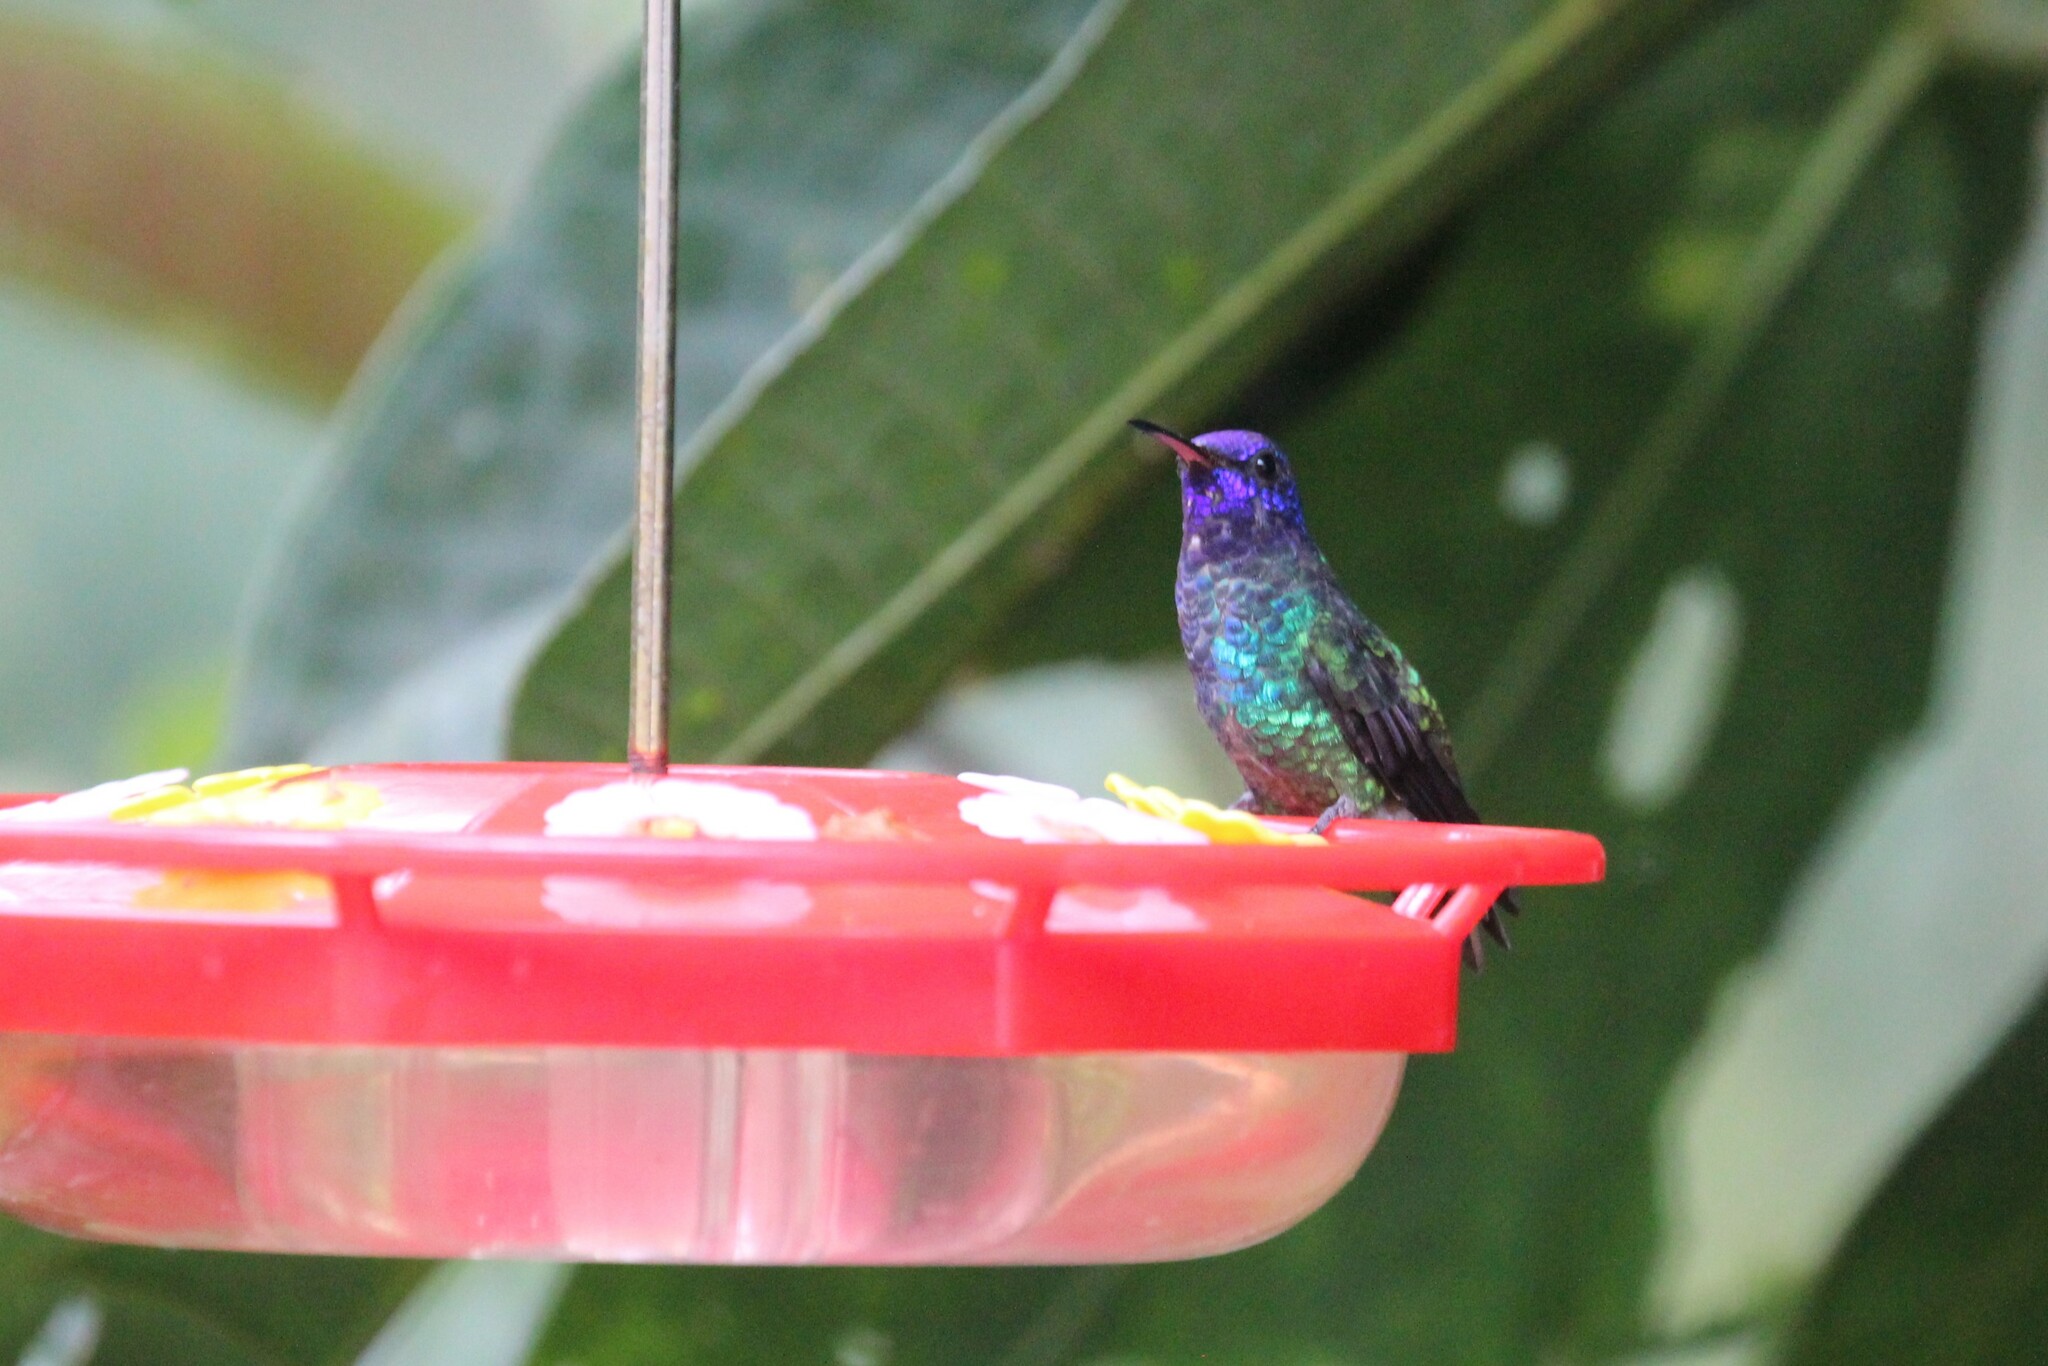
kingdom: Animalia
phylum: Chordata
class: Aves
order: Apodiformes
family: Trochilidae
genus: Chrysuronia
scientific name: Chrysuronia oenone
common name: Golden-tailed sapphire
